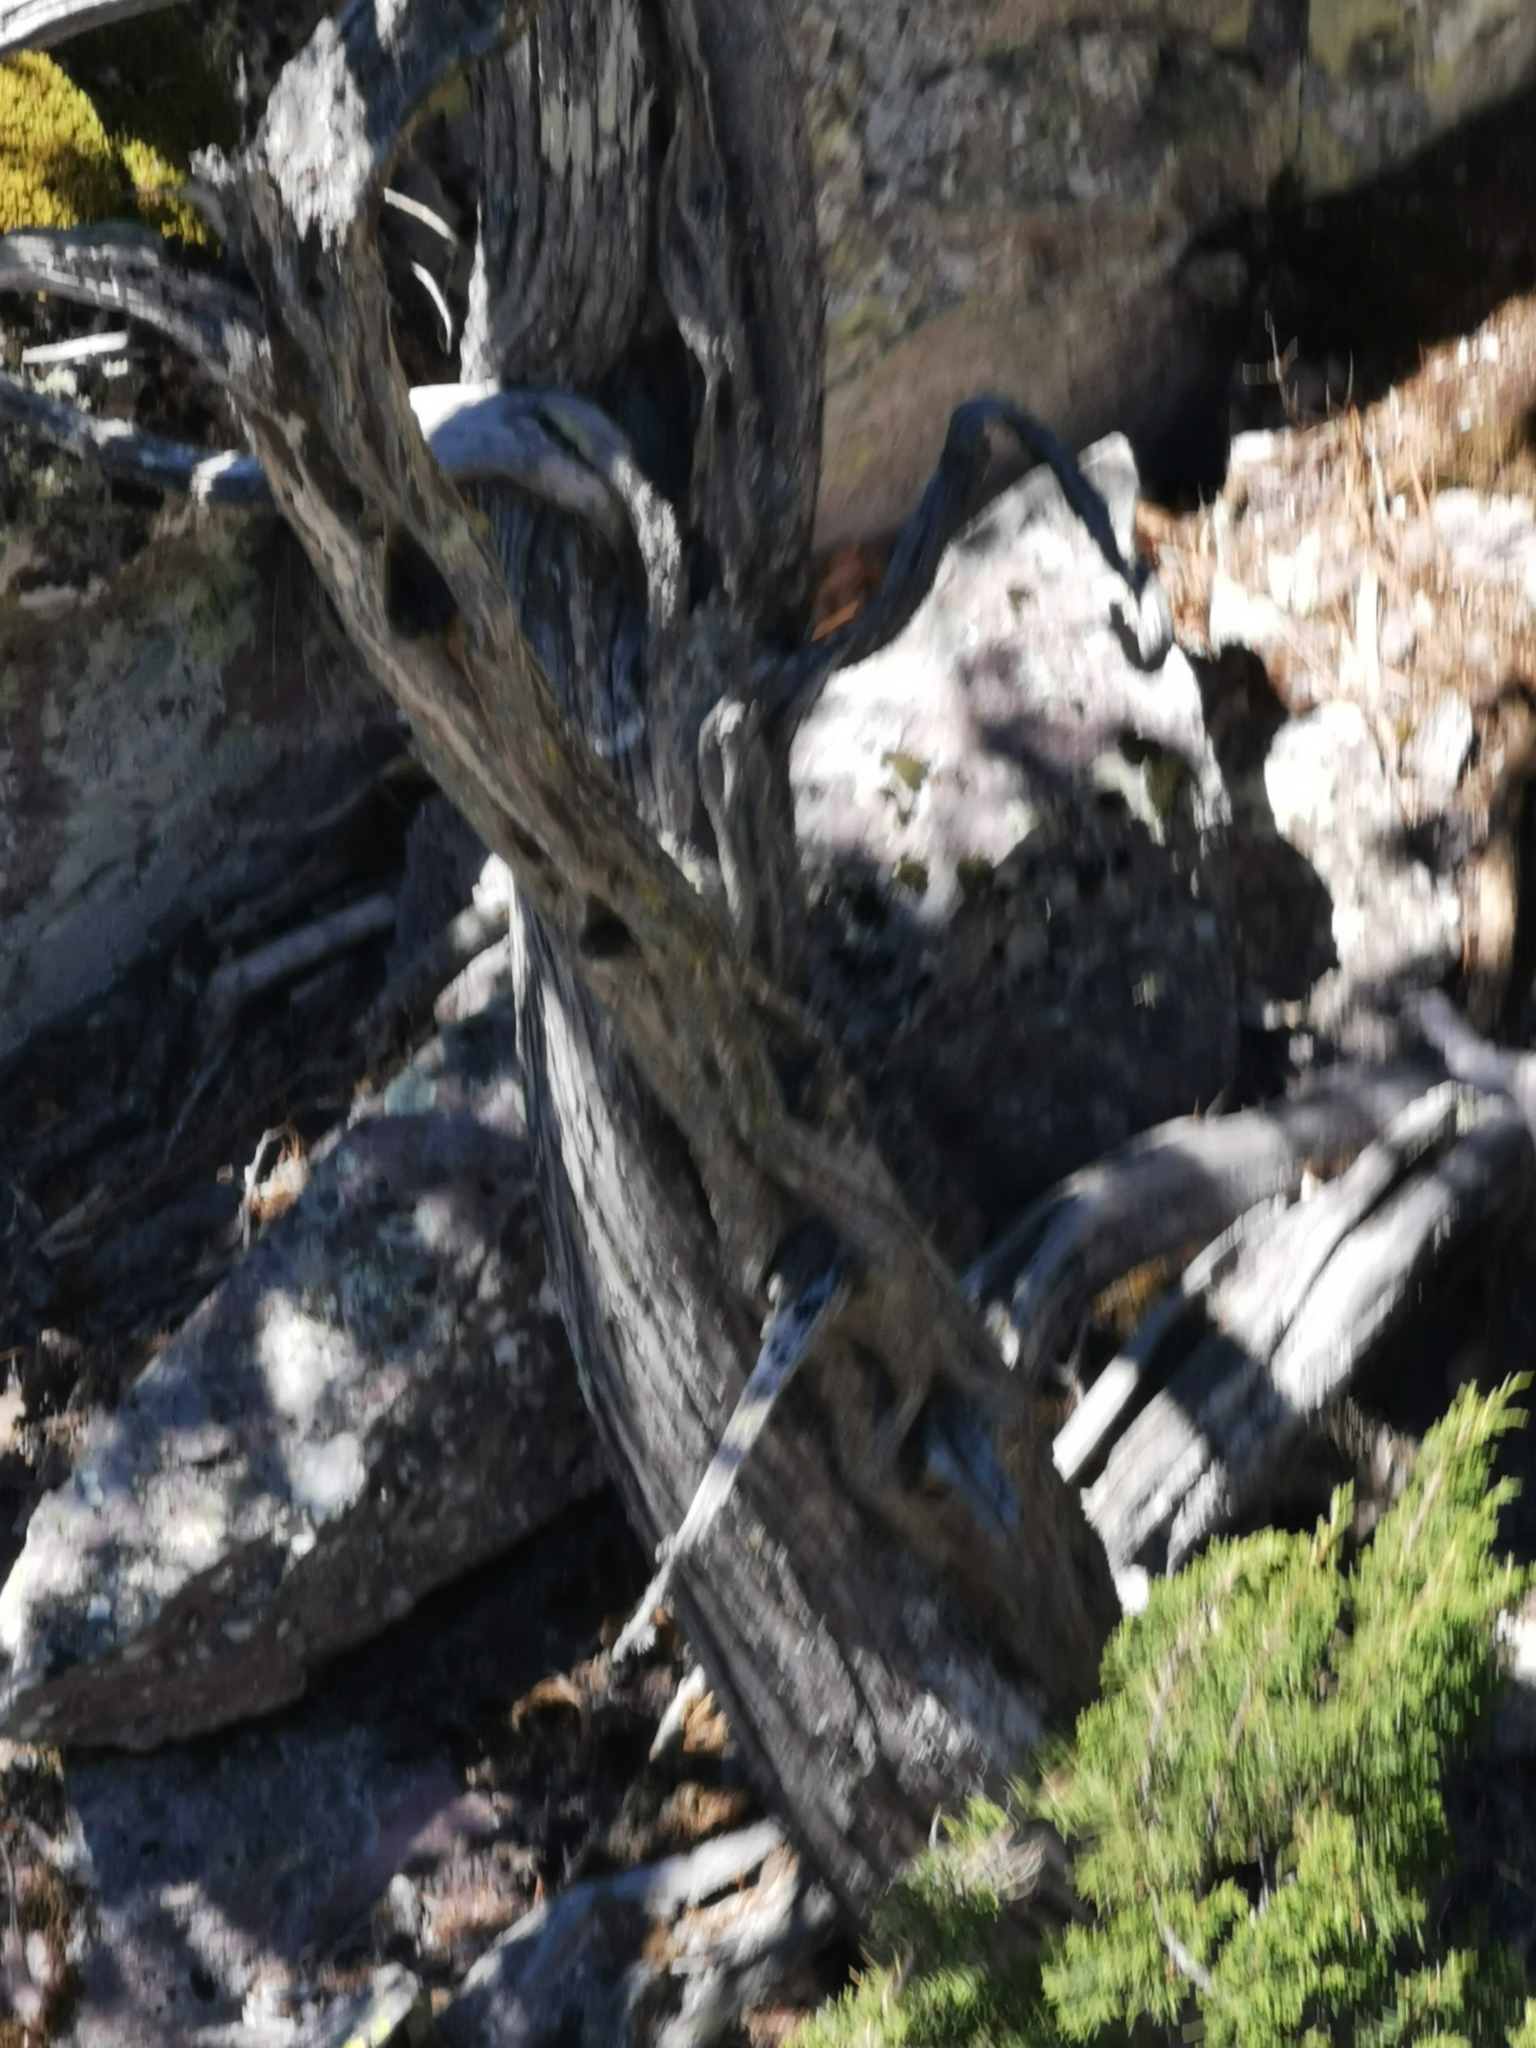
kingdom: Plantae
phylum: Tracheophyta
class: Pinopsida
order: Pinales
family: Cupressaceae
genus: Juniperus
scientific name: Juniperus durangensis
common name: Durango juniper
